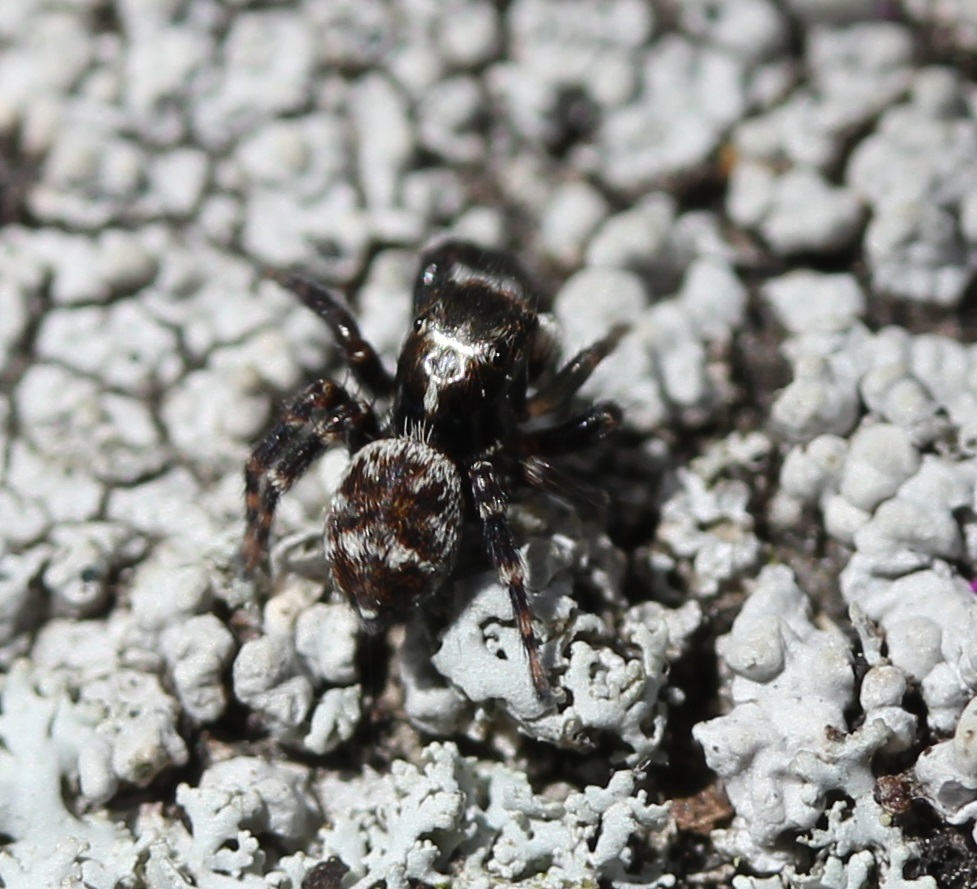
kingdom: Animalia
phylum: Arthropoda
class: Arachnida
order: Araneae
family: Salticidae
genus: Pseudeuophrys
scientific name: Pseudeuophrys erratica
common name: Jumping spider
